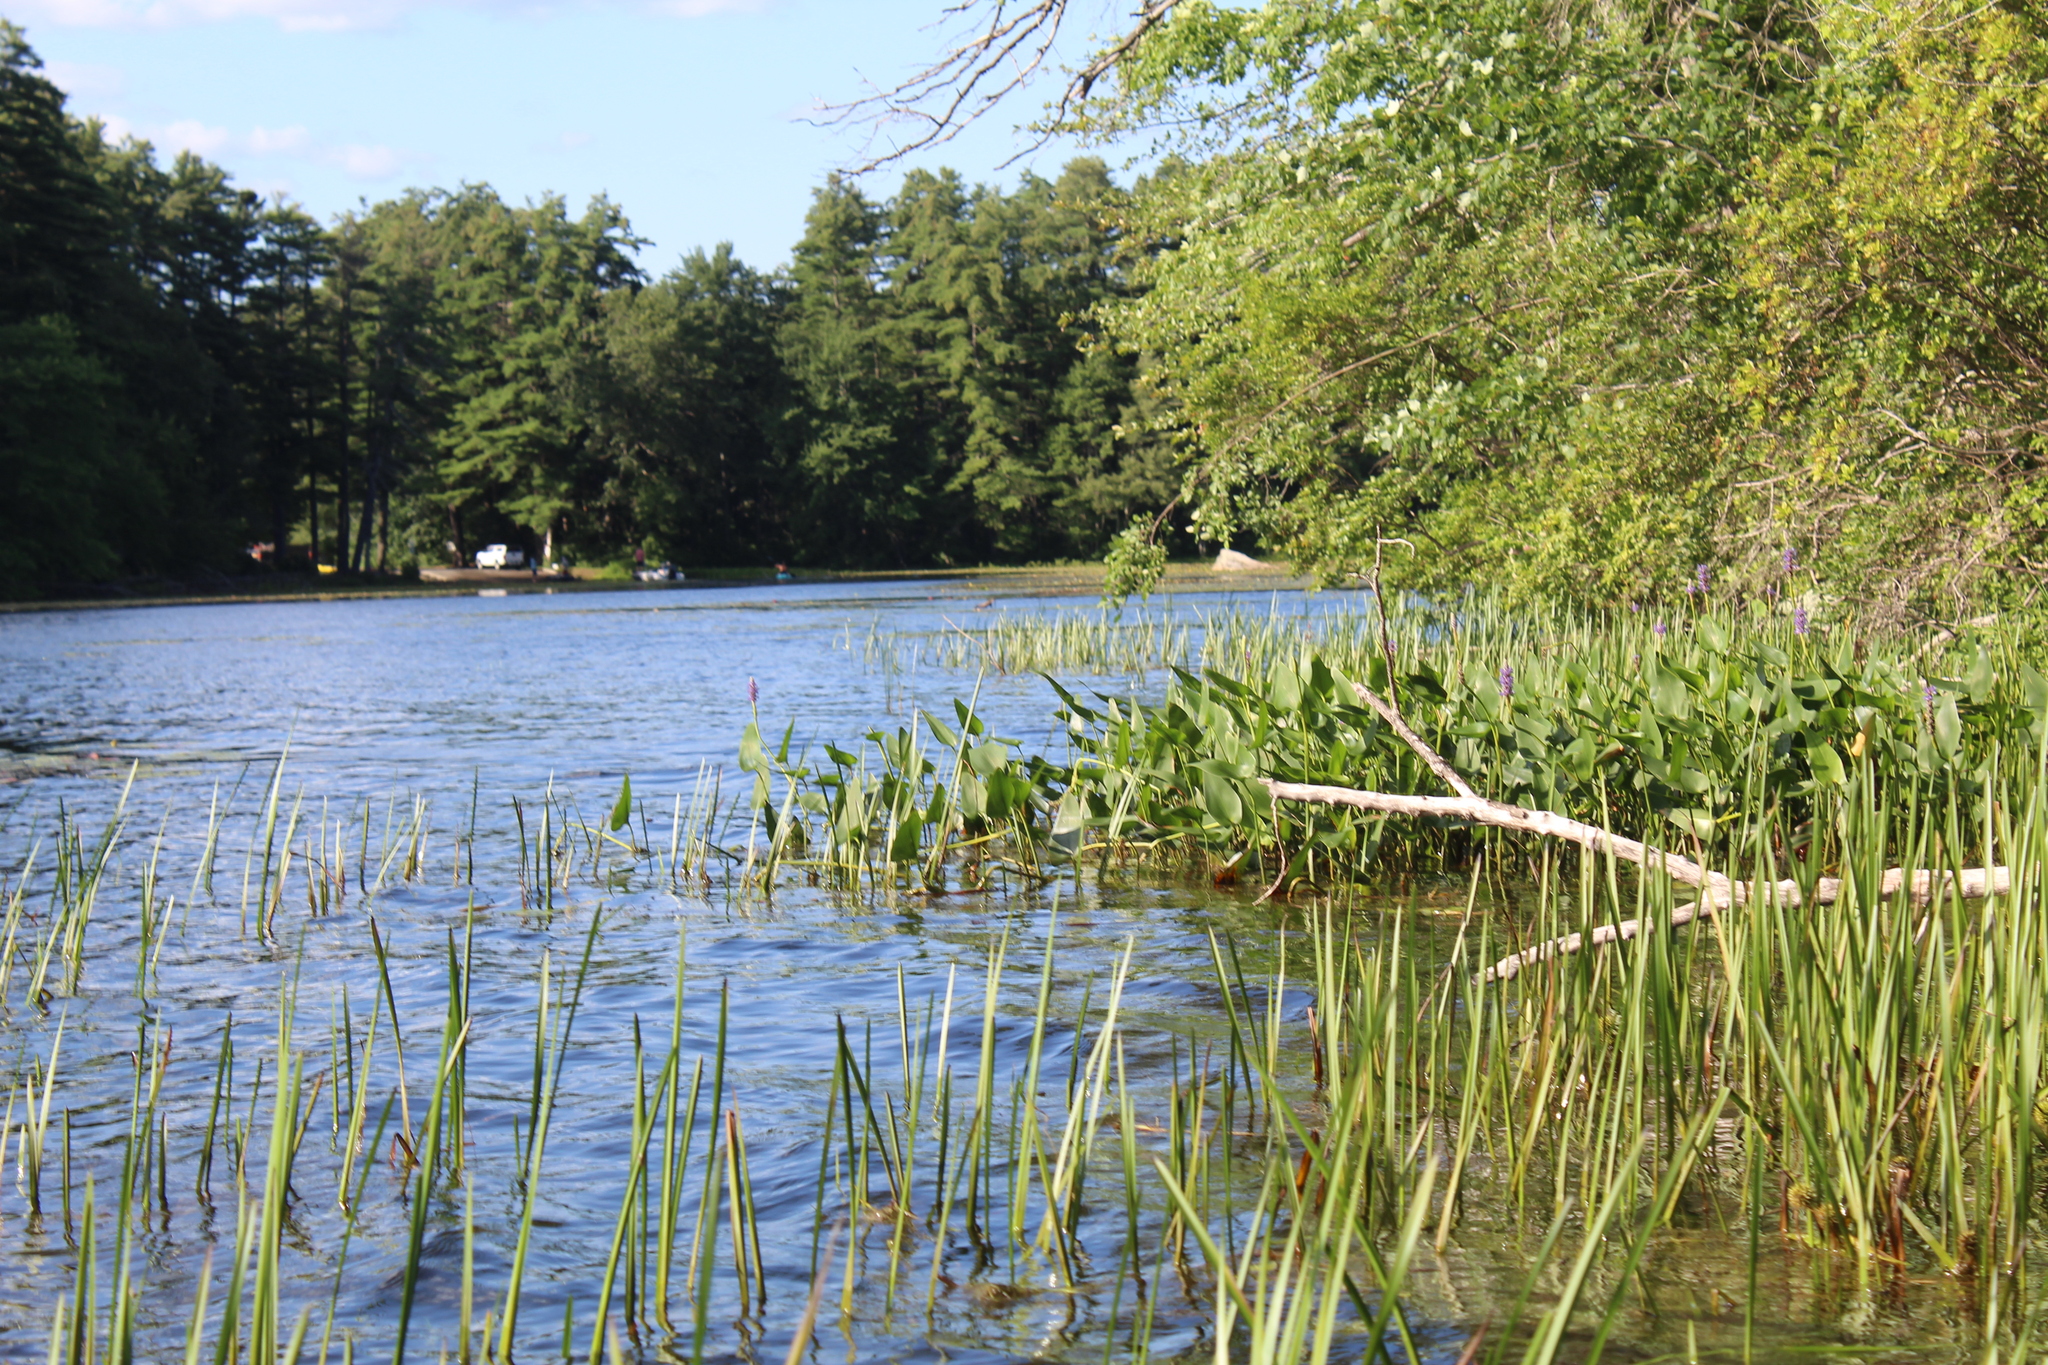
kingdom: Plantae
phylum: Tracheophyta
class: Liliopsida
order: Commelinales
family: Pontederiaceae
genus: Pontederia
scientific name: Pontederia cordata
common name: Pickerelweed
